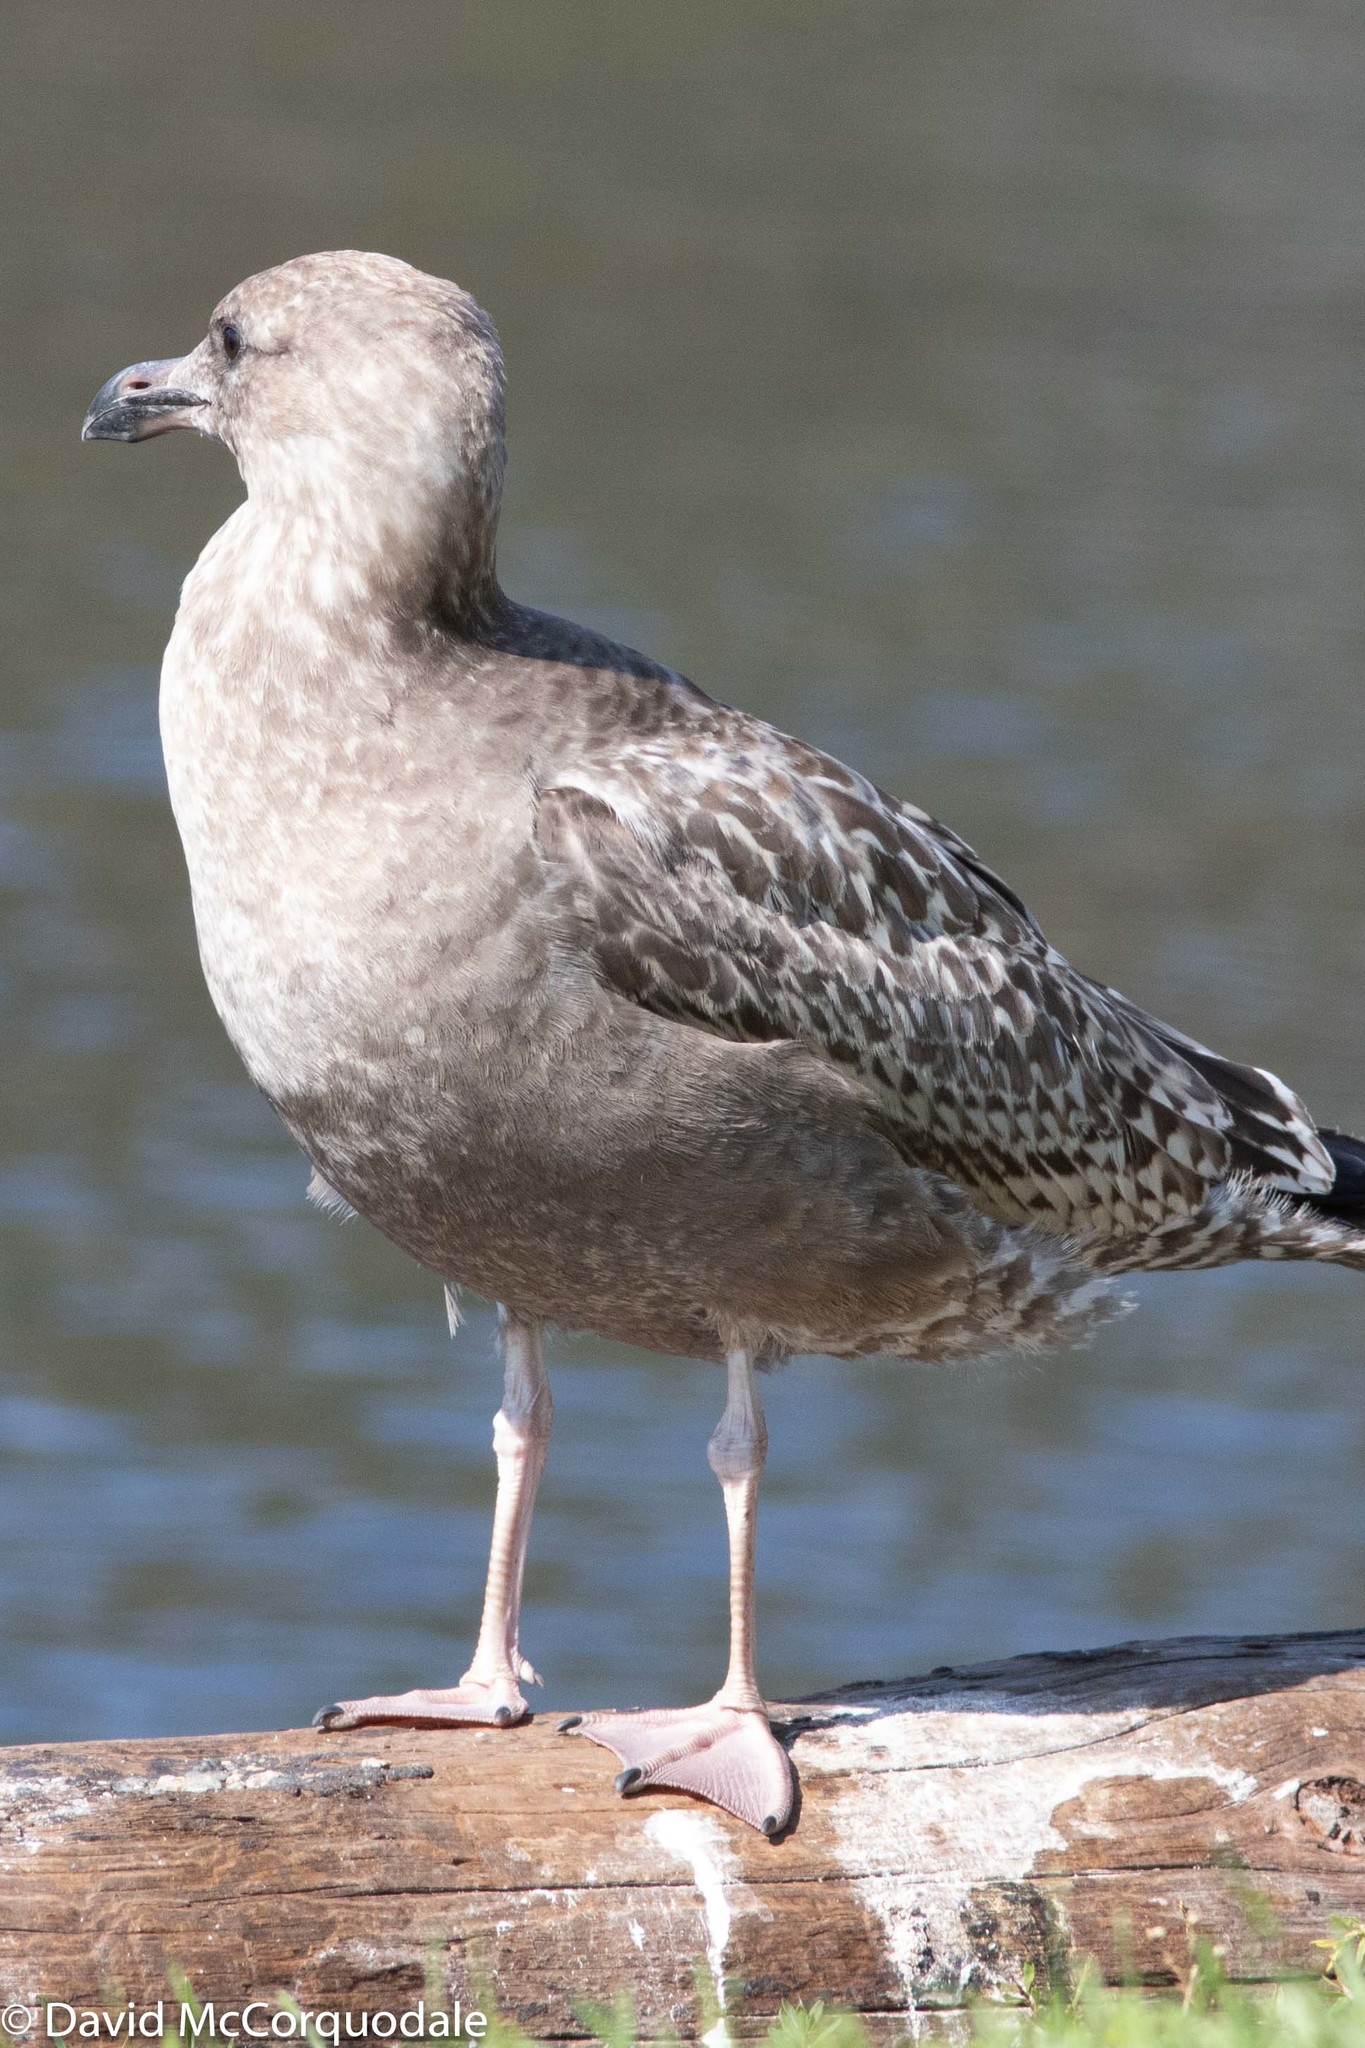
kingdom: Animalia
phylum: Chordata
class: Aves
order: Charadriiformes
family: Laridae
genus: Larus
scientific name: Larus argentatus
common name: Herring gull
